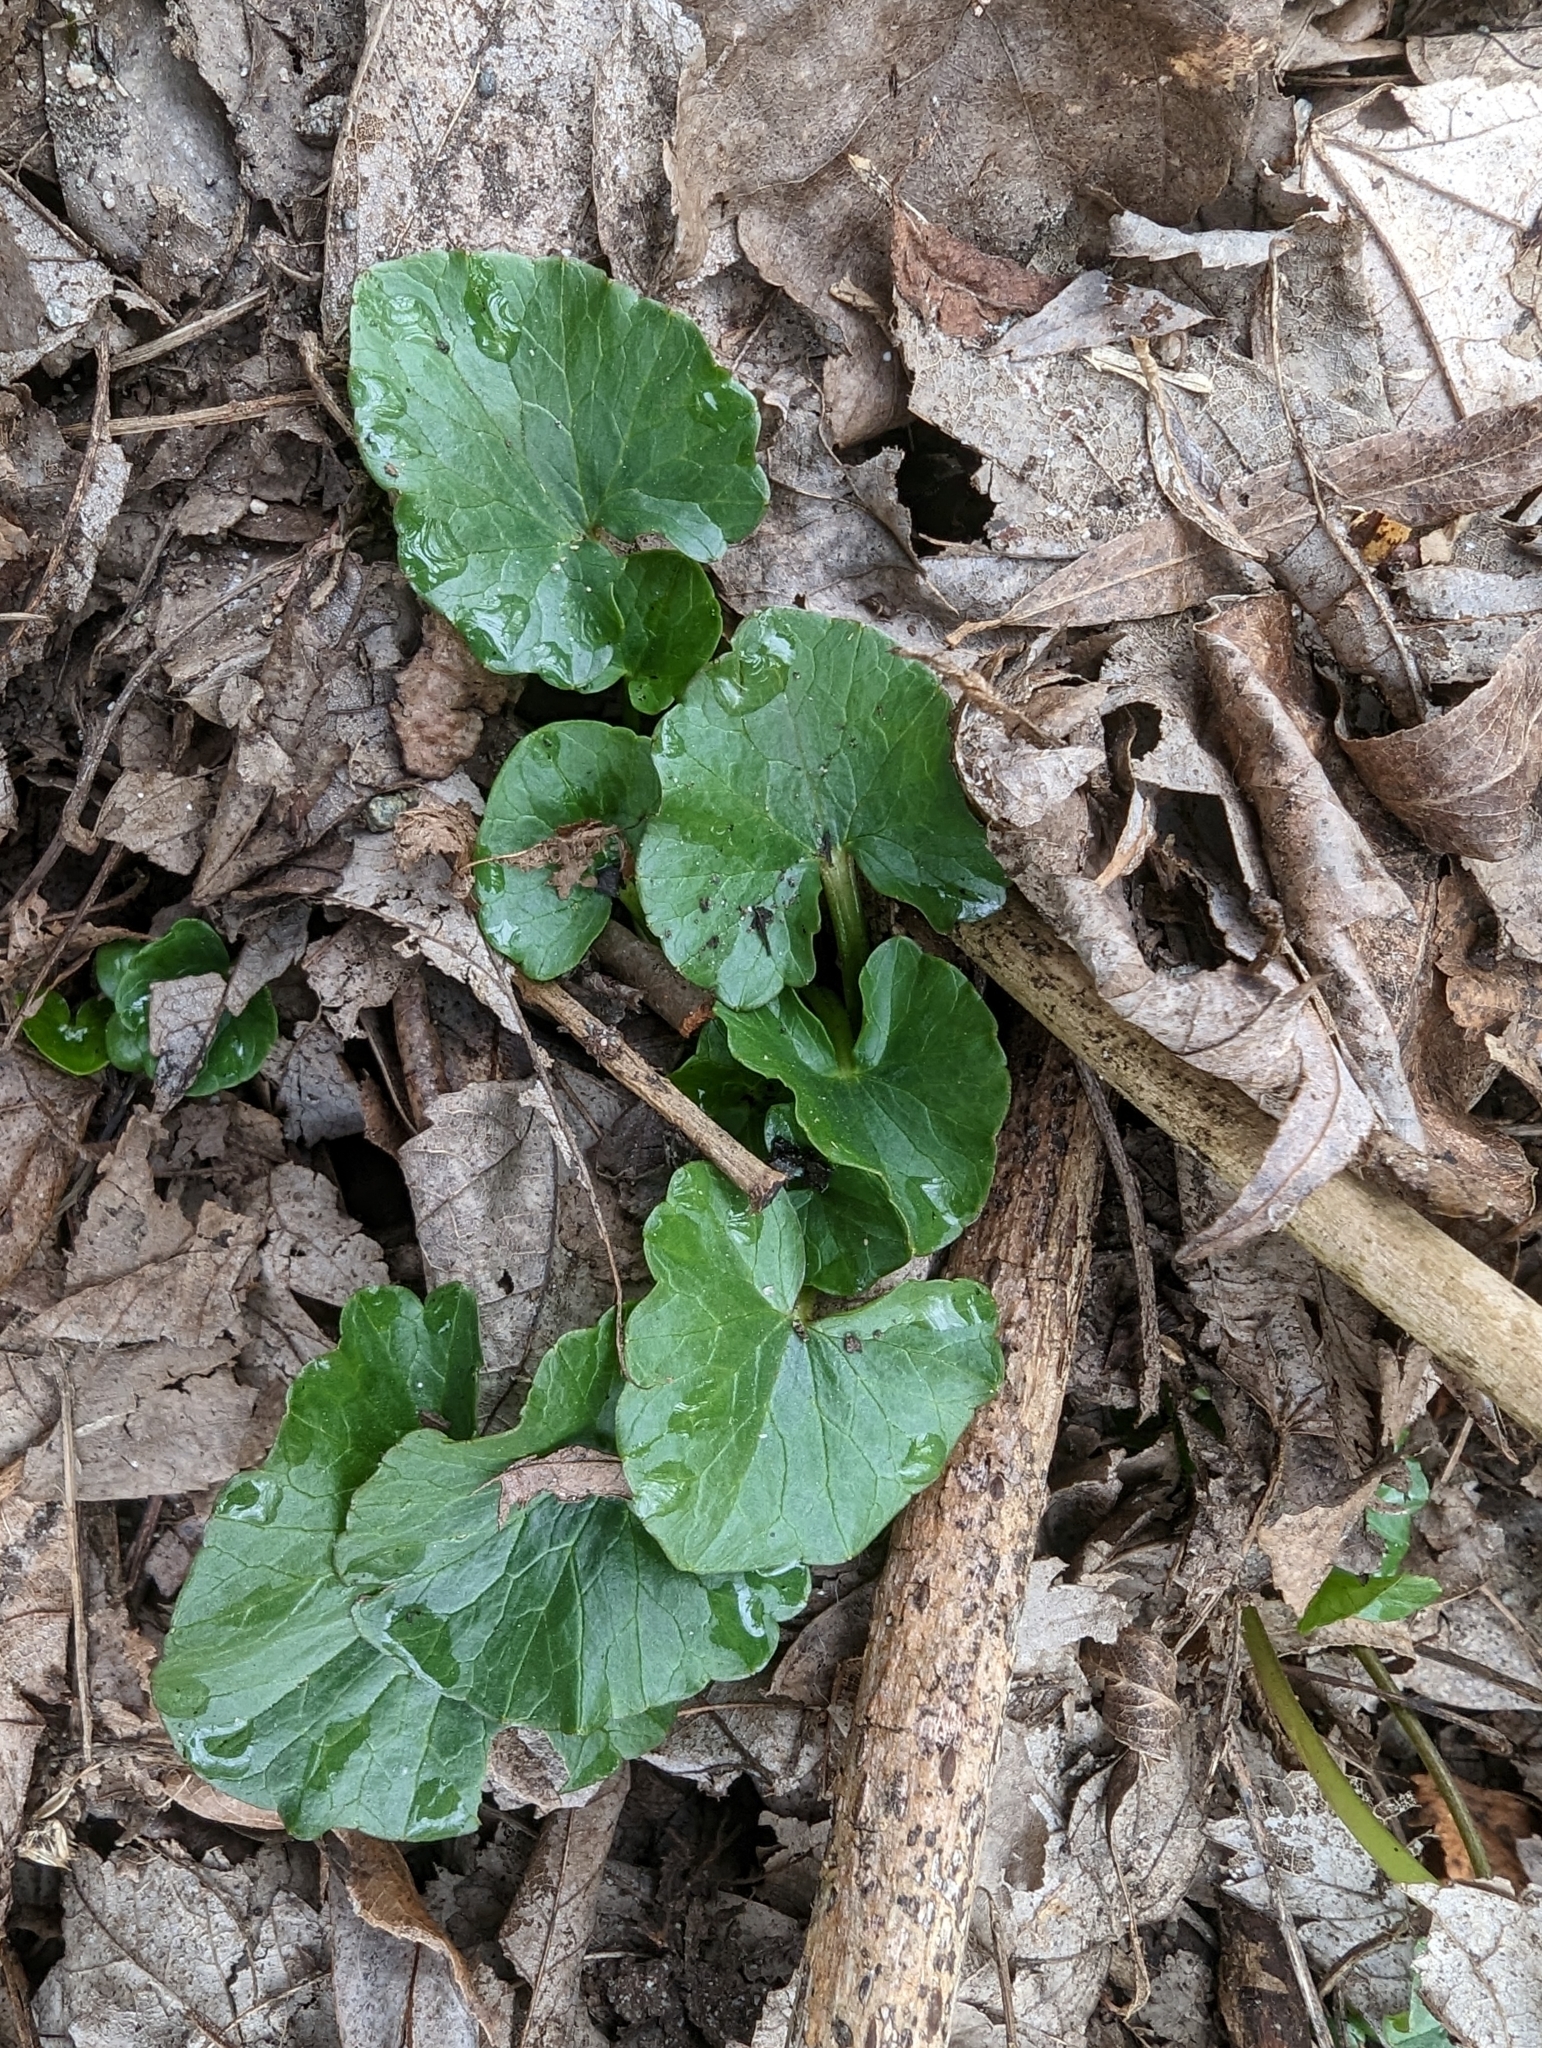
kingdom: Plantae
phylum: Tracheophyta
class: Magnoliopsida
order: Ranunculales
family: Ranunculaceae
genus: Ficaria
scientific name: Ficaria verna
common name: Lesser celandine
